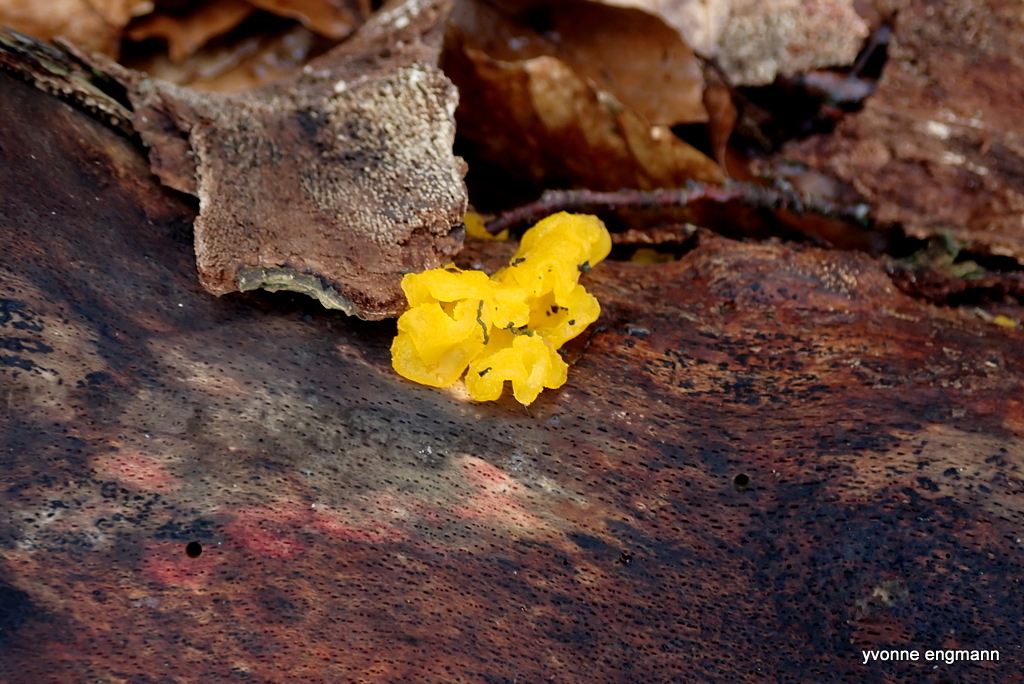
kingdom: Fungi
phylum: Basidiomycota
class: Tremellomycetes
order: Tremellales
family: Tremellaceae
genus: Tremella
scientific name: Tremella mesenterica
